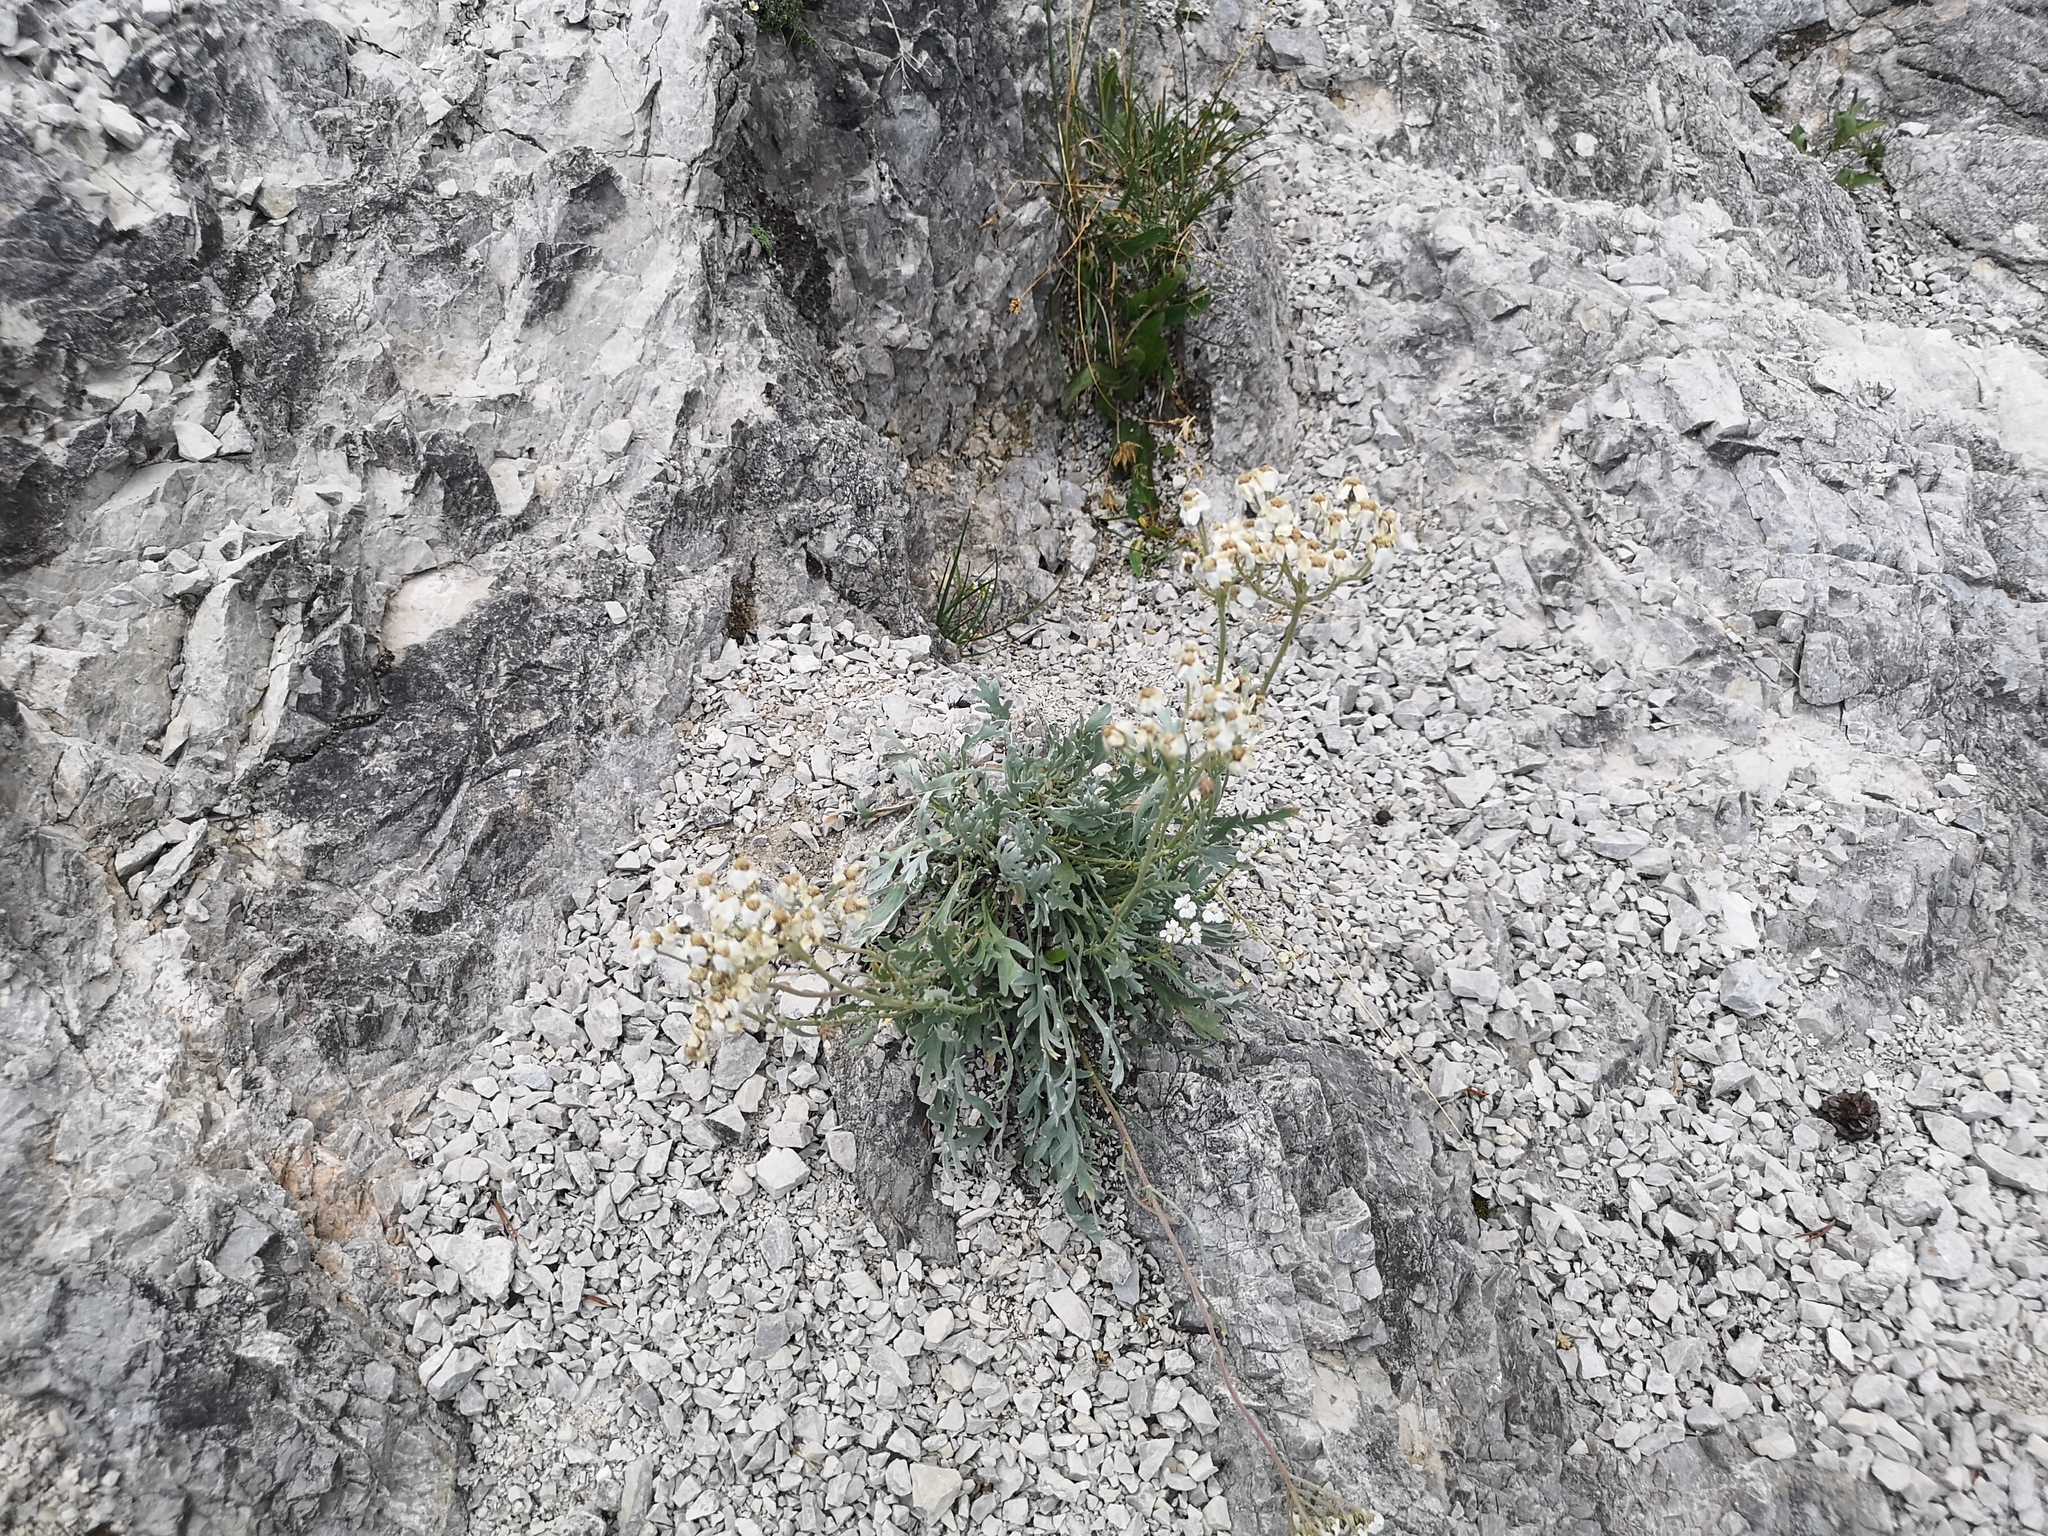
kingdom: Plantae
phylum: Tracheophyta
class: Magnoliopsida
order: Asterales
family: Asteraceae
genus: Achillea
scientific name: Achillea clavennae
